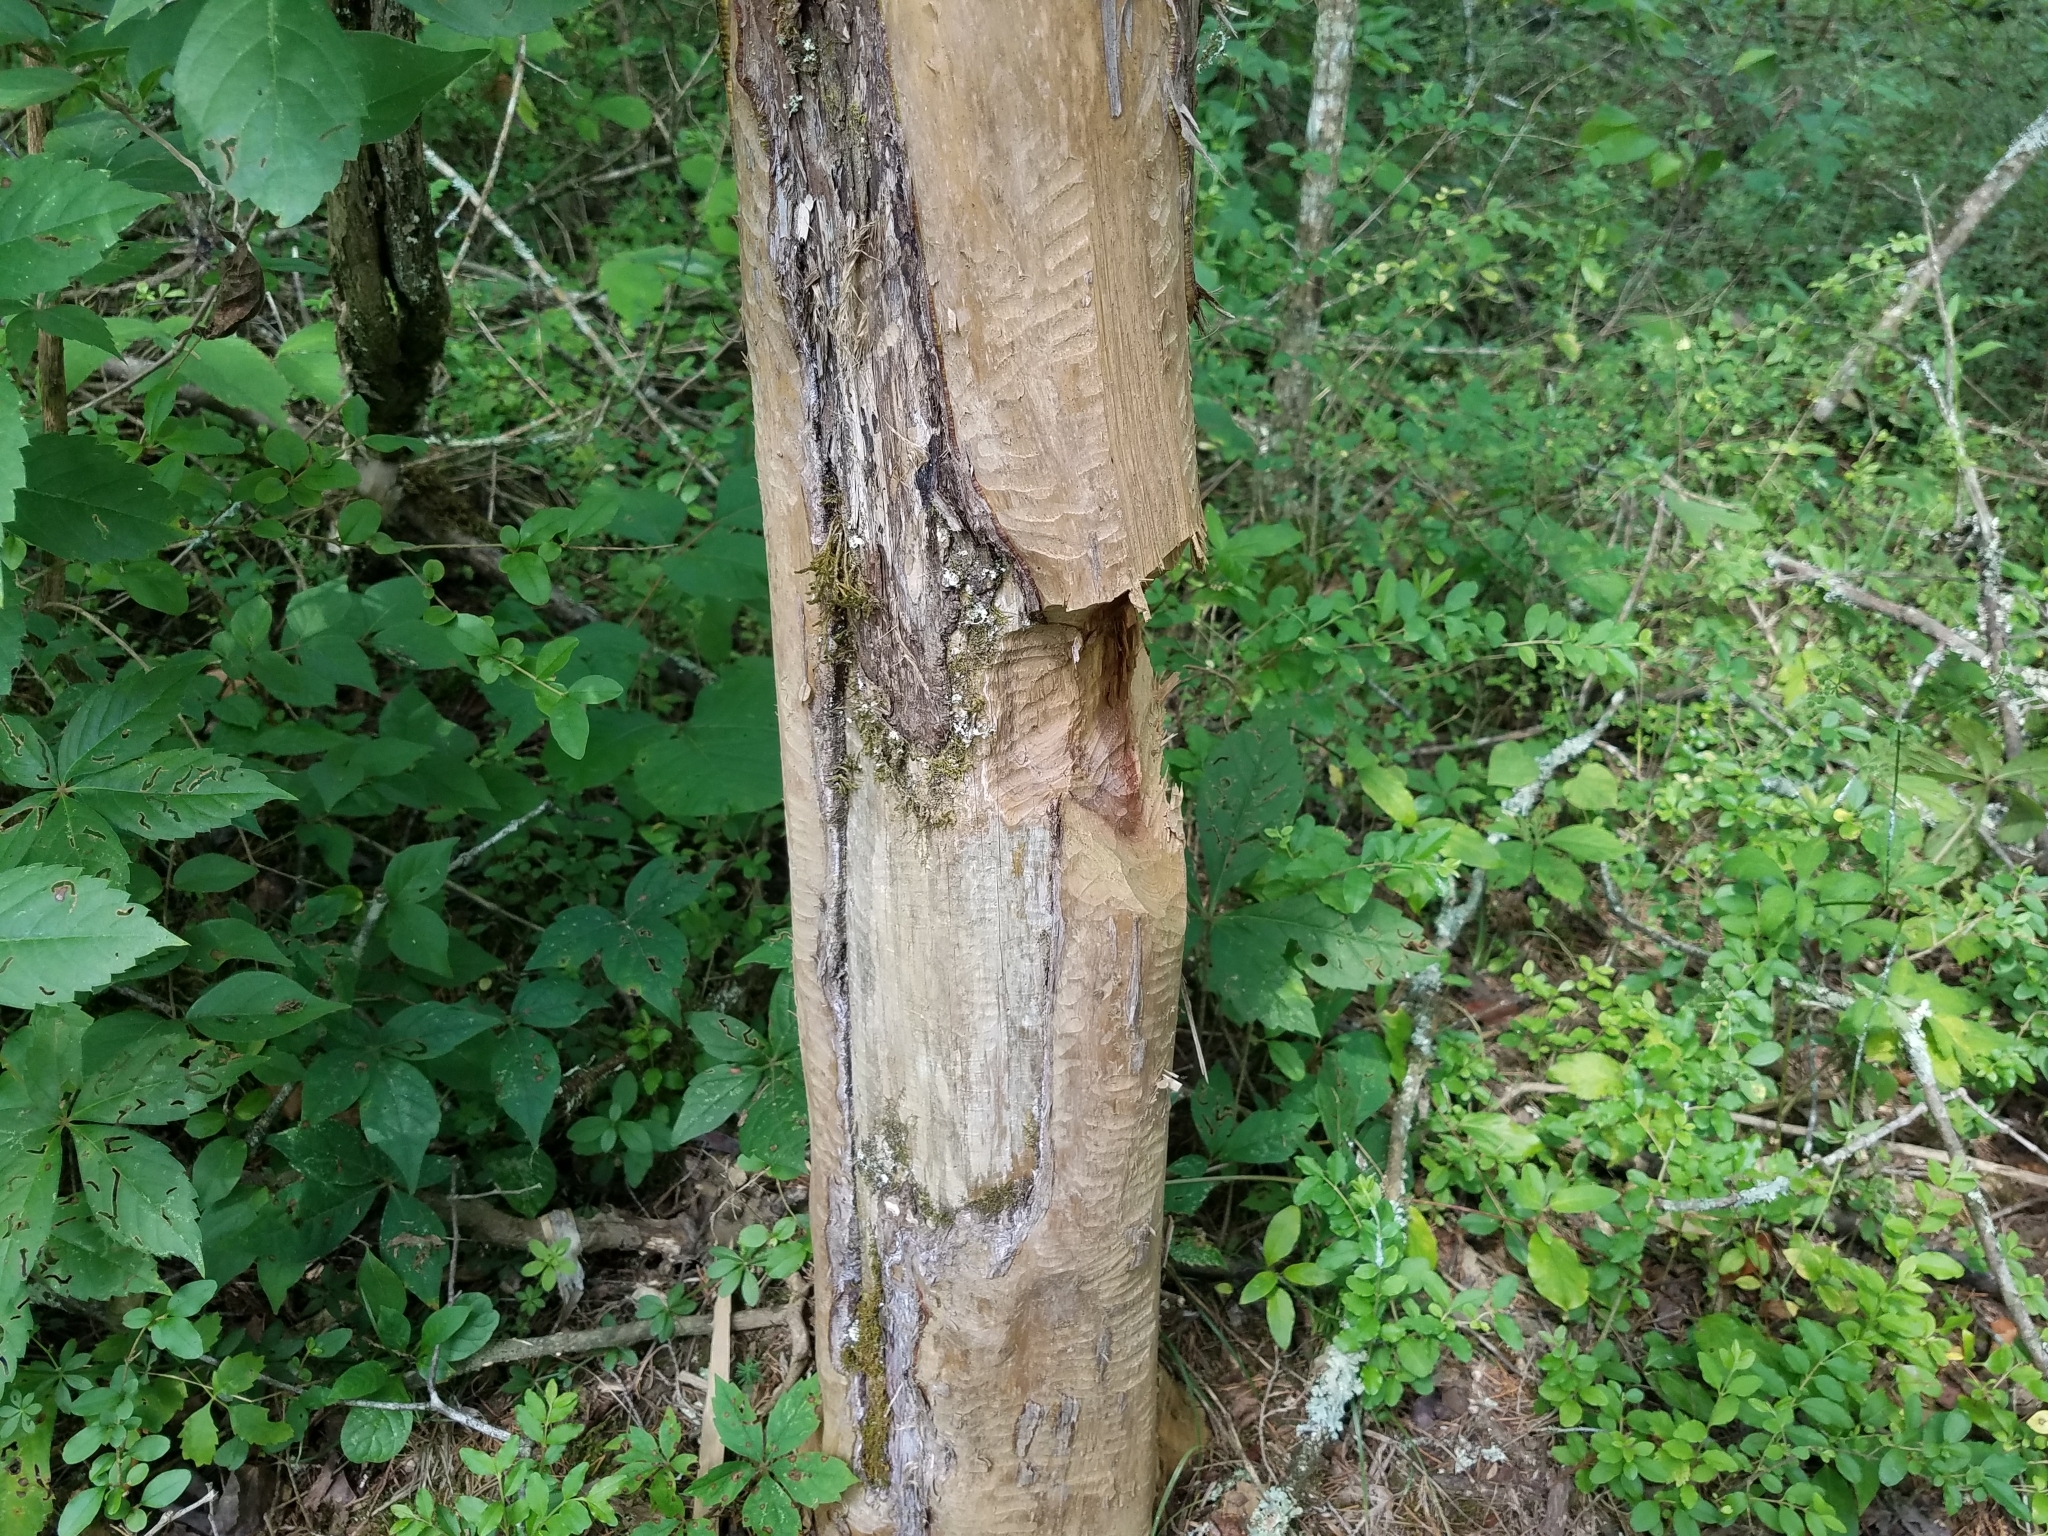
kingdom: Animalia
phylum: Chordata
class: Mammalia
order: Rodentia
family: Castoridae
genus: Castor
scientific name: Castor canadensis
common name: American beaver
